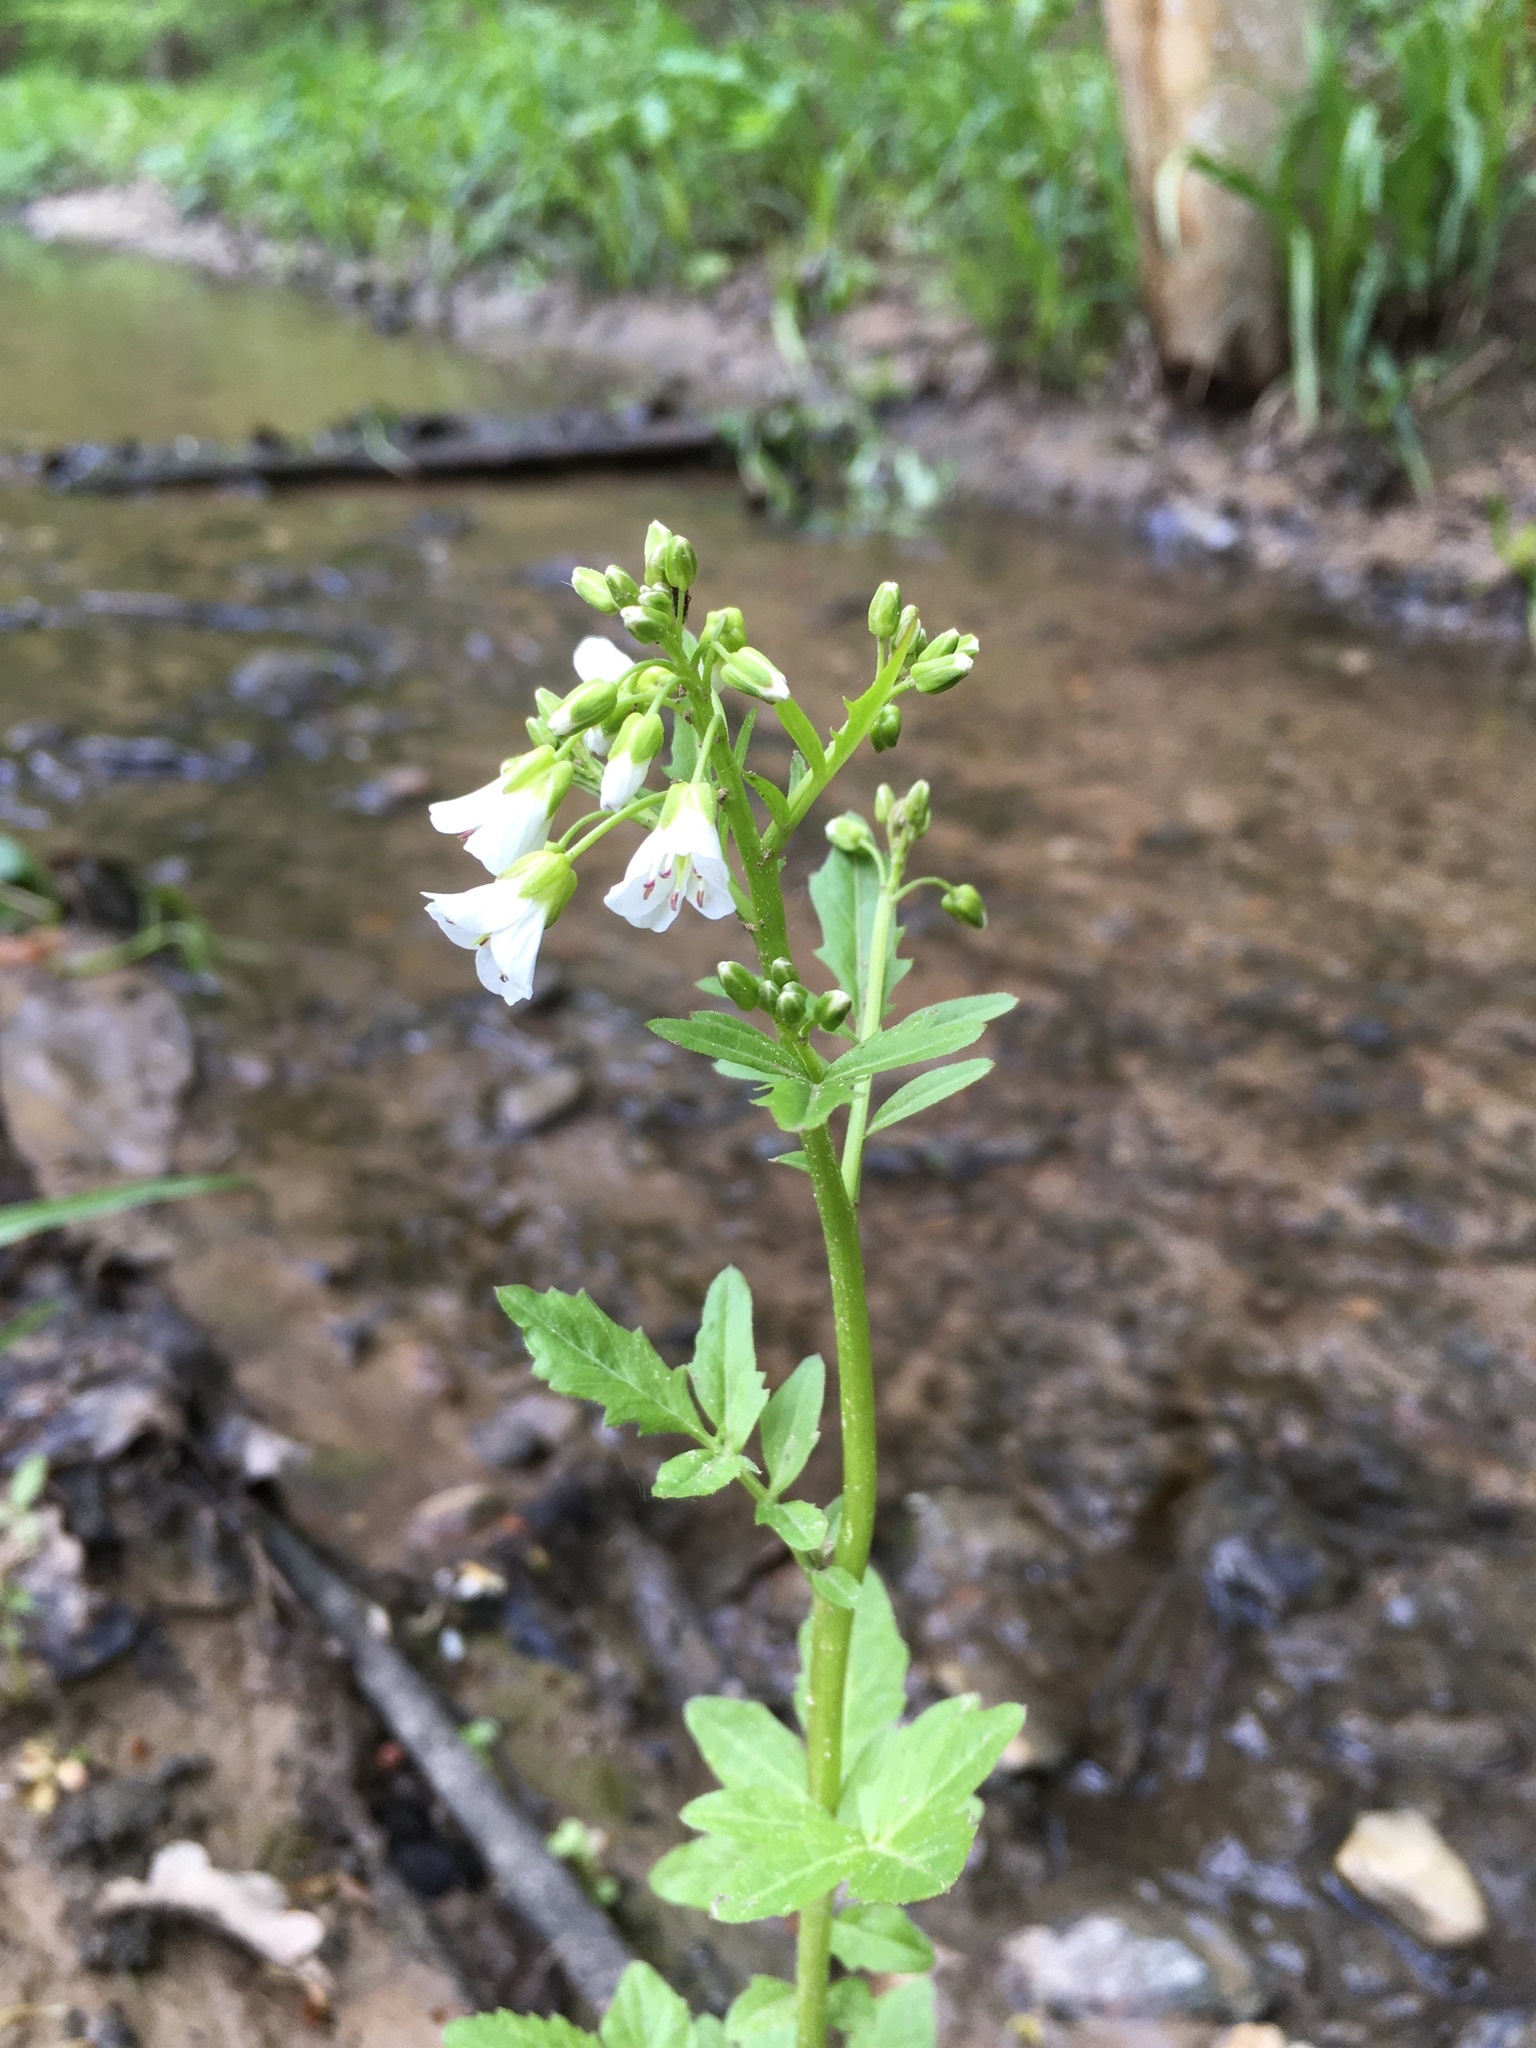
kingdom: Plantae
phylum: Tracheophyta
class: Magnoliopsida
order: Brassicales
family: Brassicaceae
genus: Cardamine
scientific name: Cardamine amara
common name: Large bitter-cress
